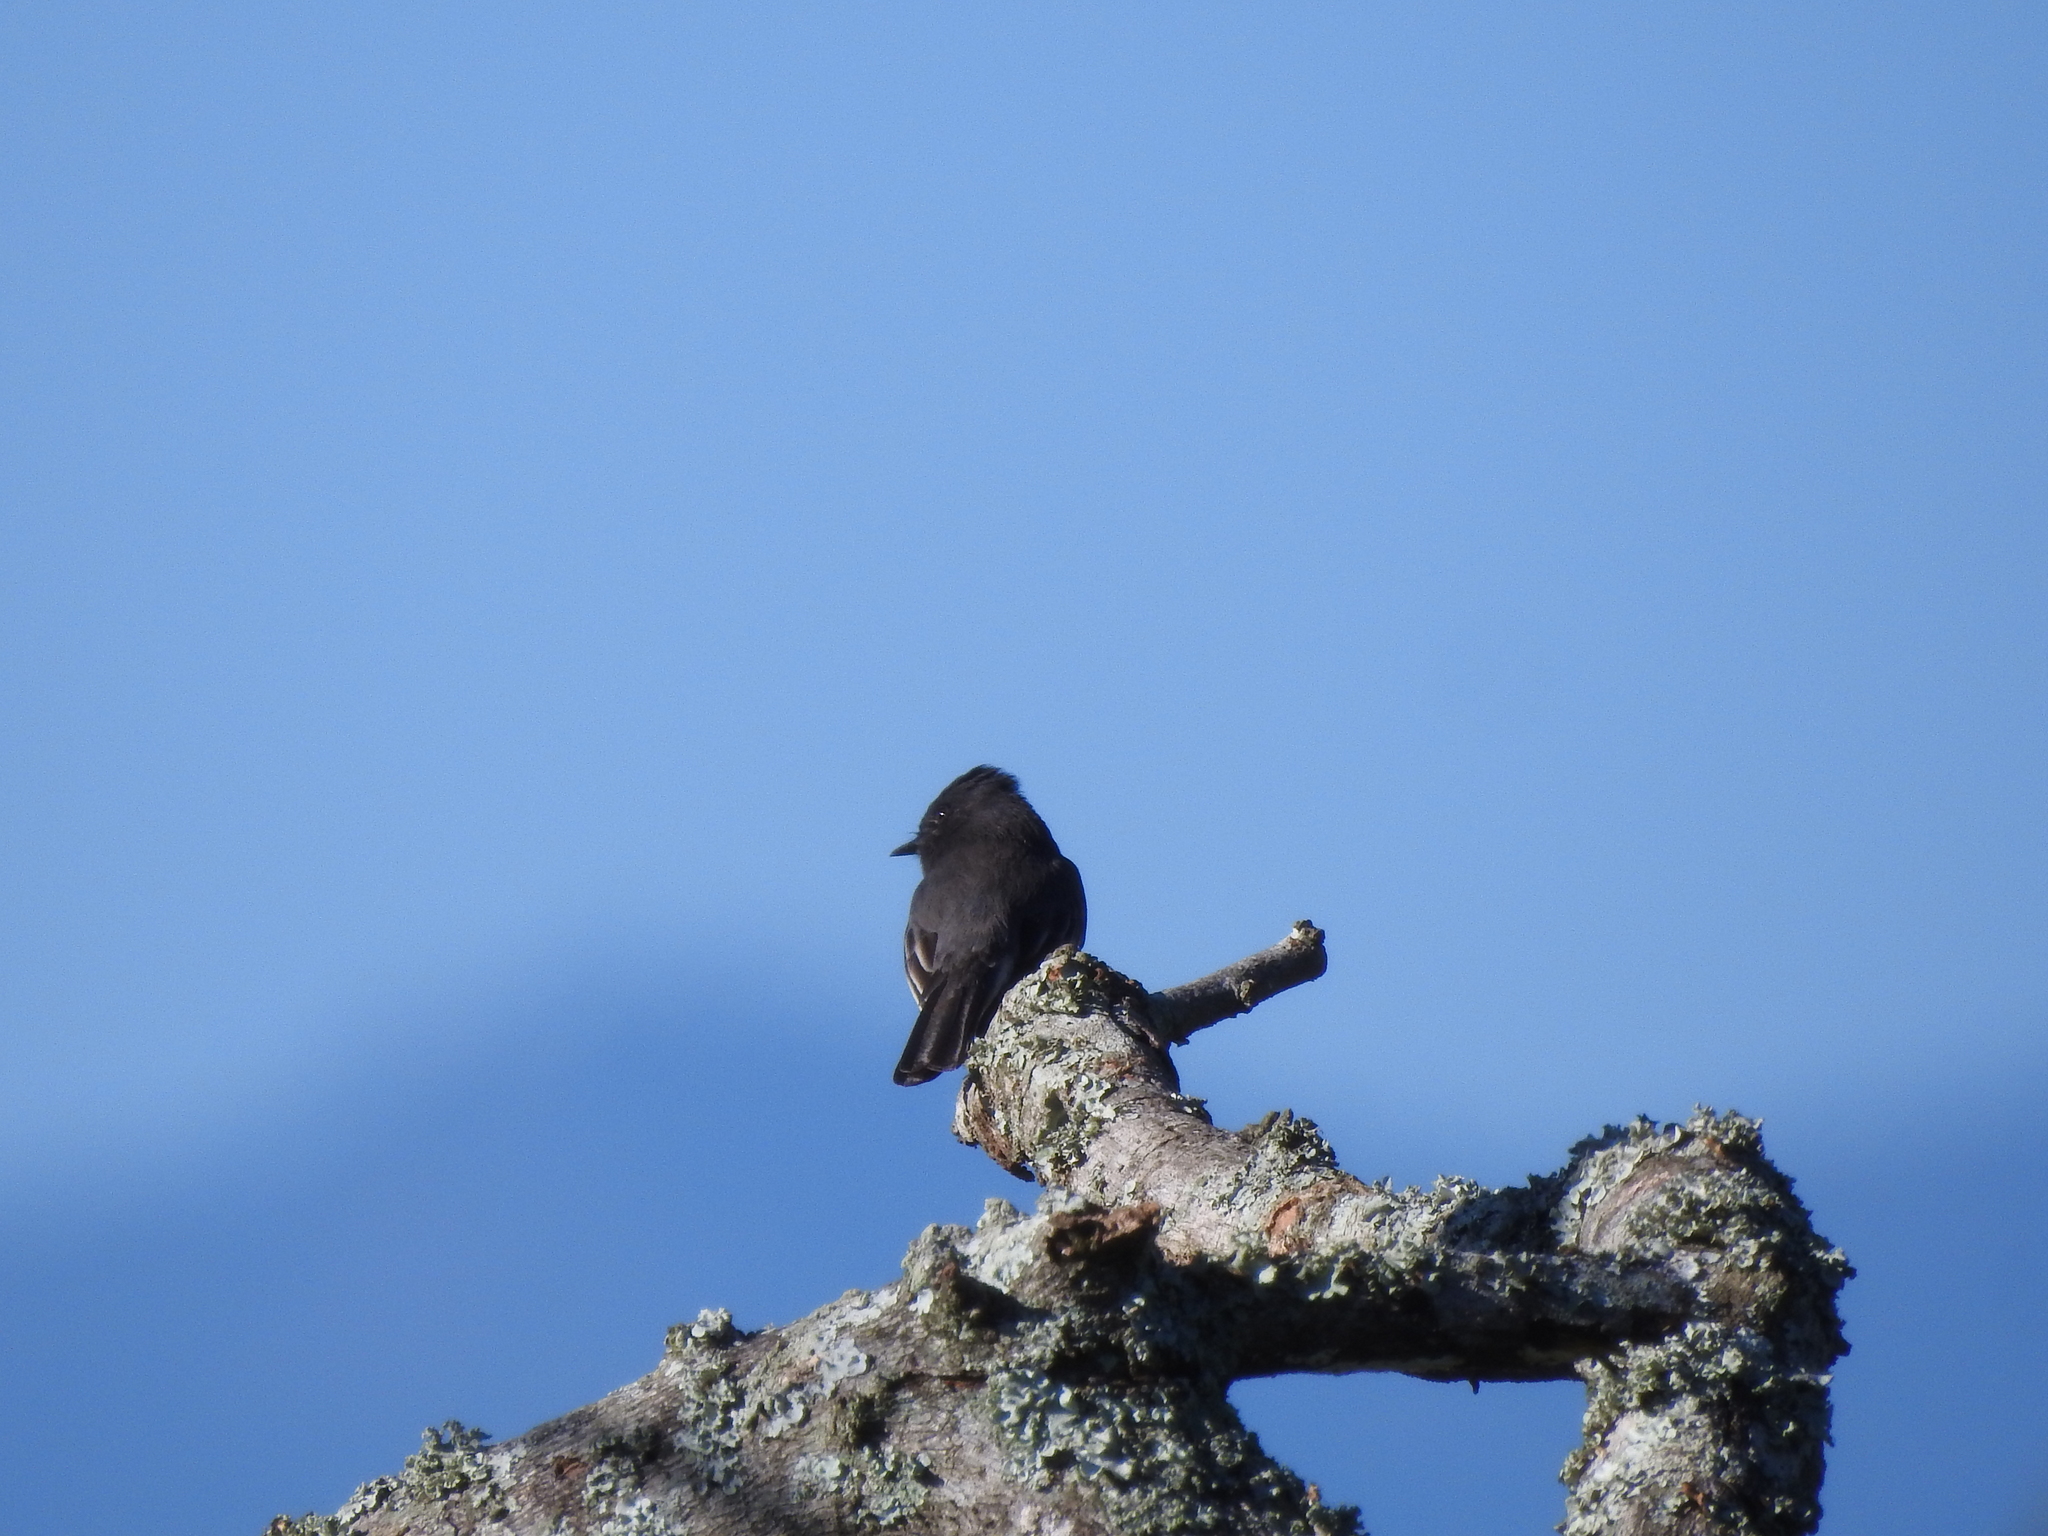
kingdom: Animalia
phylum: Chordata
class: Aves
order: Passeriformes
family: Tyrannidae
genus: Sayornis
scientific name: Sayornis nigricans
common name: Black phoebe
